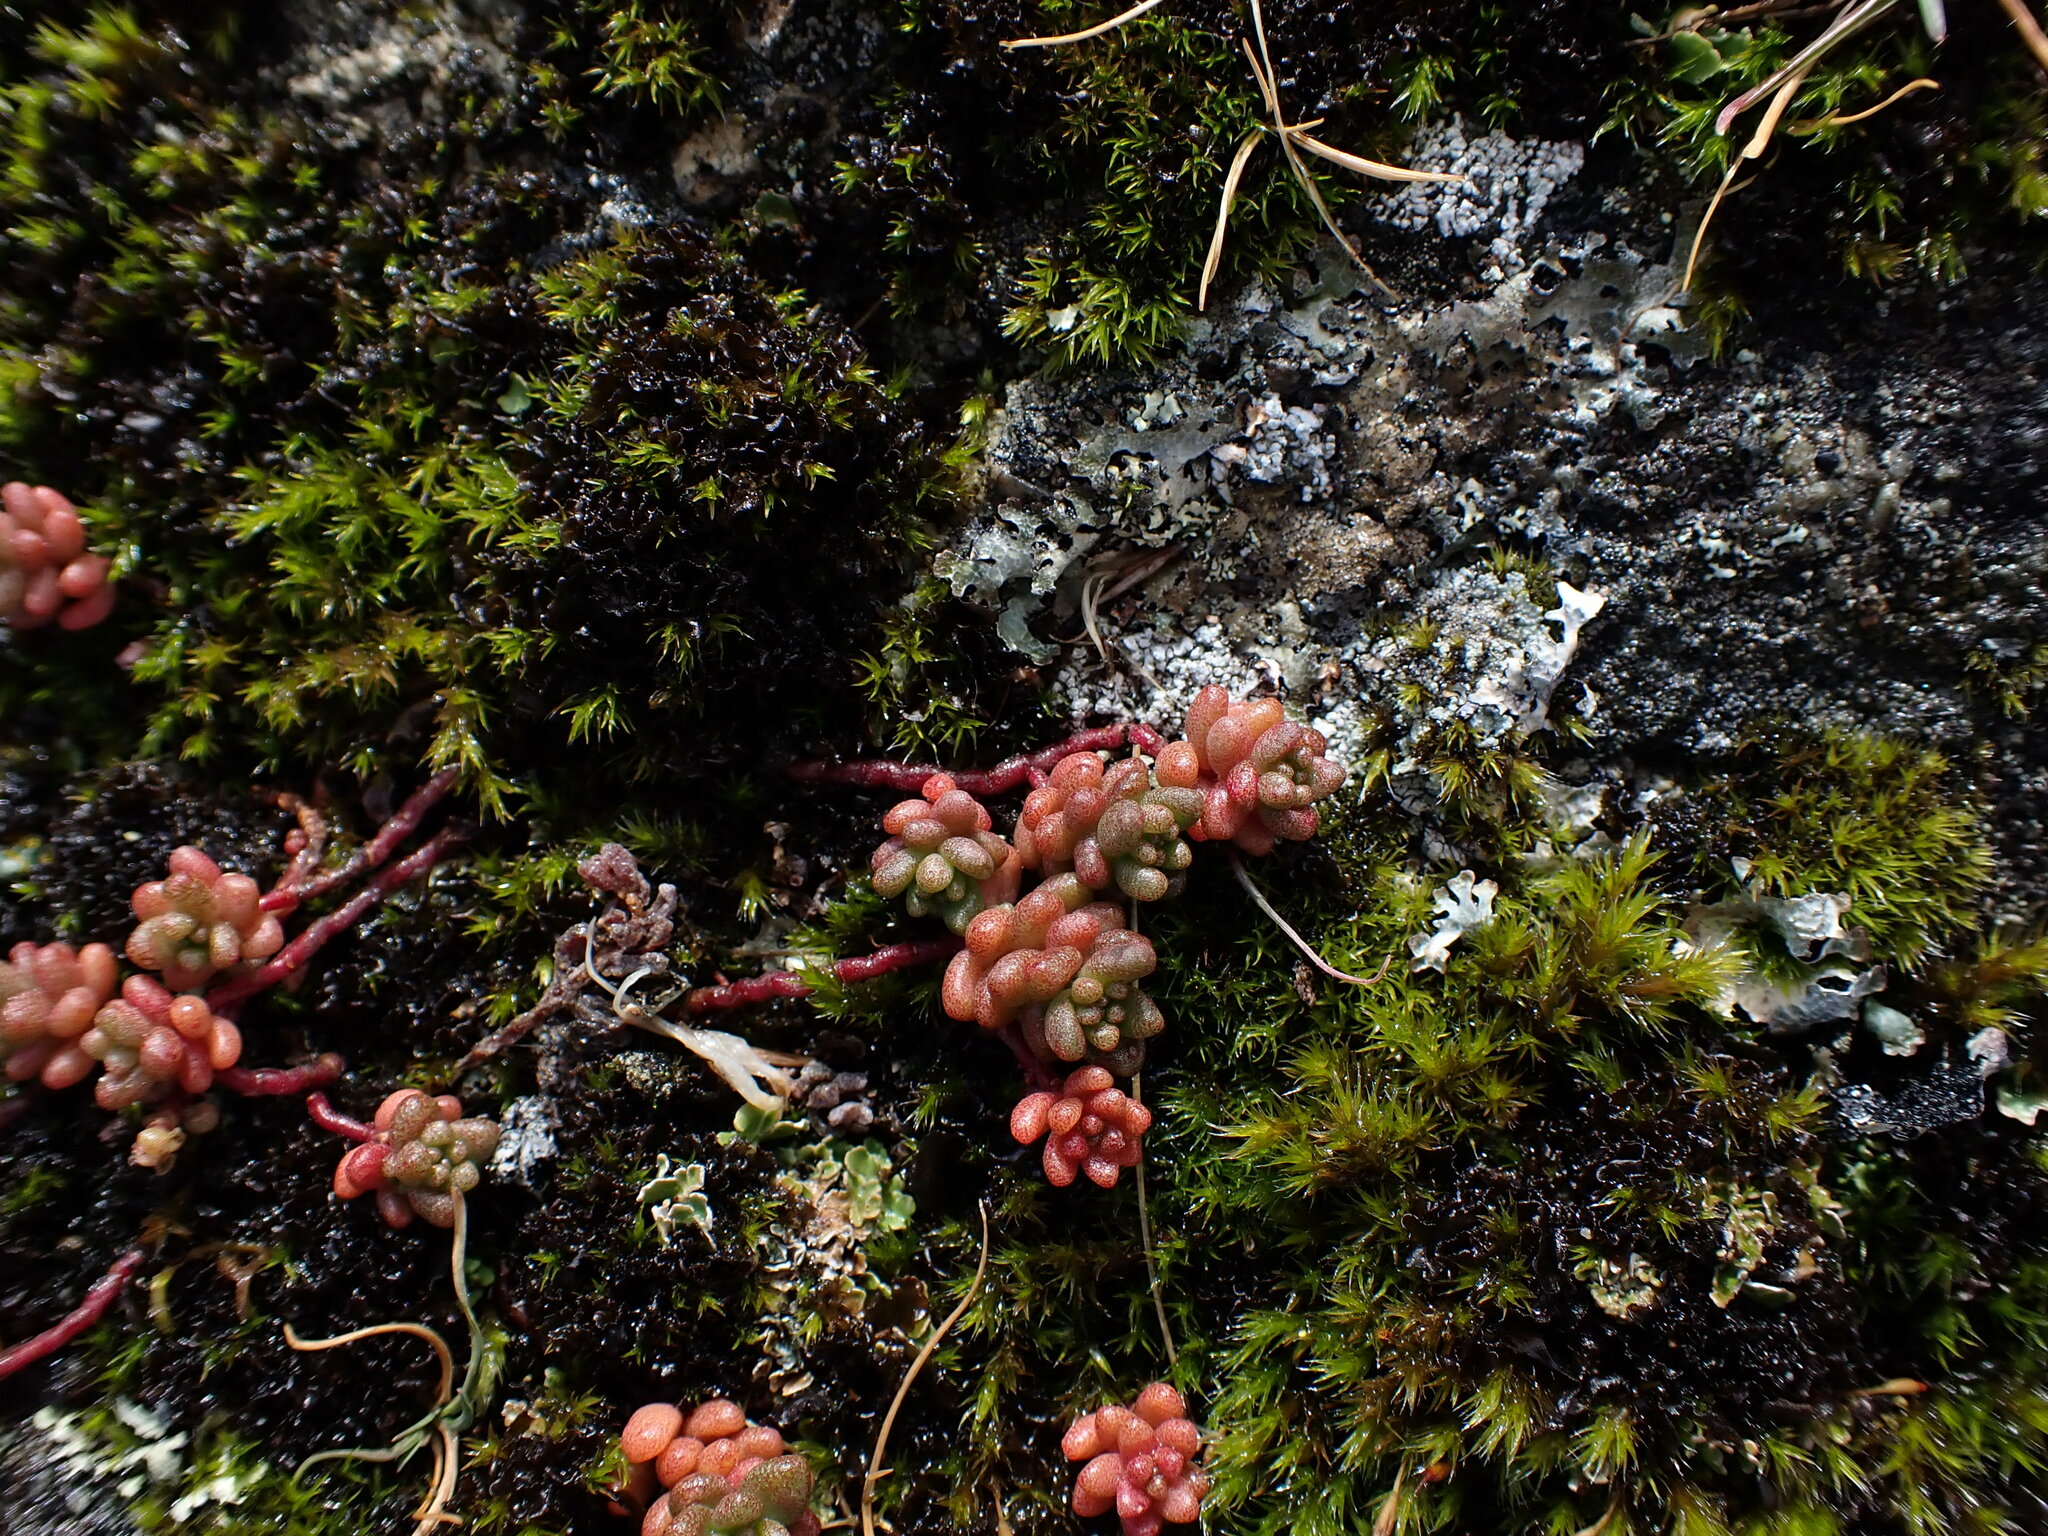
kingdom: Plantae
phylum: Tracheophyta
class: Magnoliopsida
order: Saxifragales
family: Crassulaceae
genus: Sedum
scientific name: Sedum album
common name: White stonecrop
